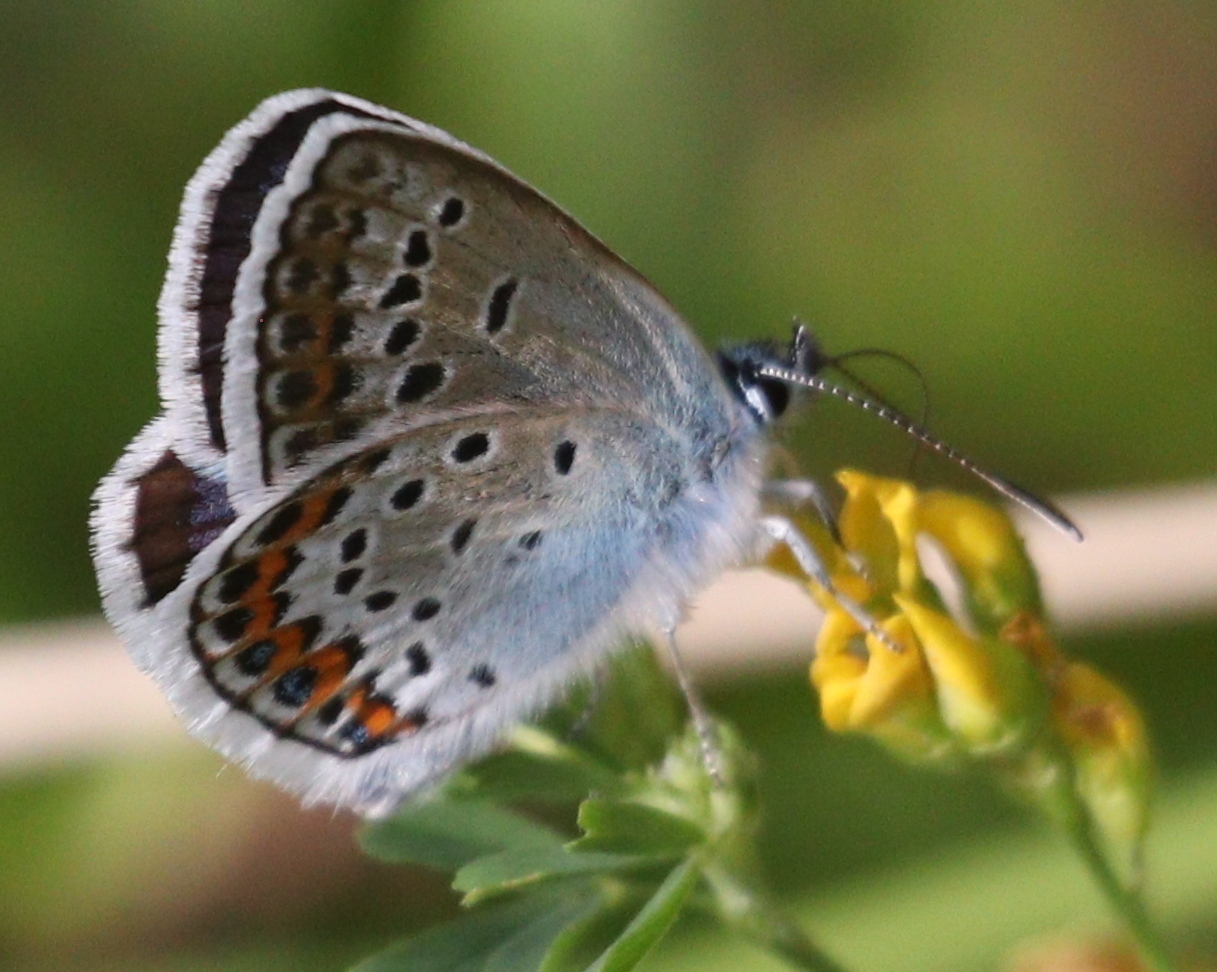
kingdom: Animalia
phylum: Arthropoda
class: Insecta
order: Lepidoptera
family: Lycaenidae
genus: Plebejus
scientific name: Plebejus argus
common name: Silver-studded blue
